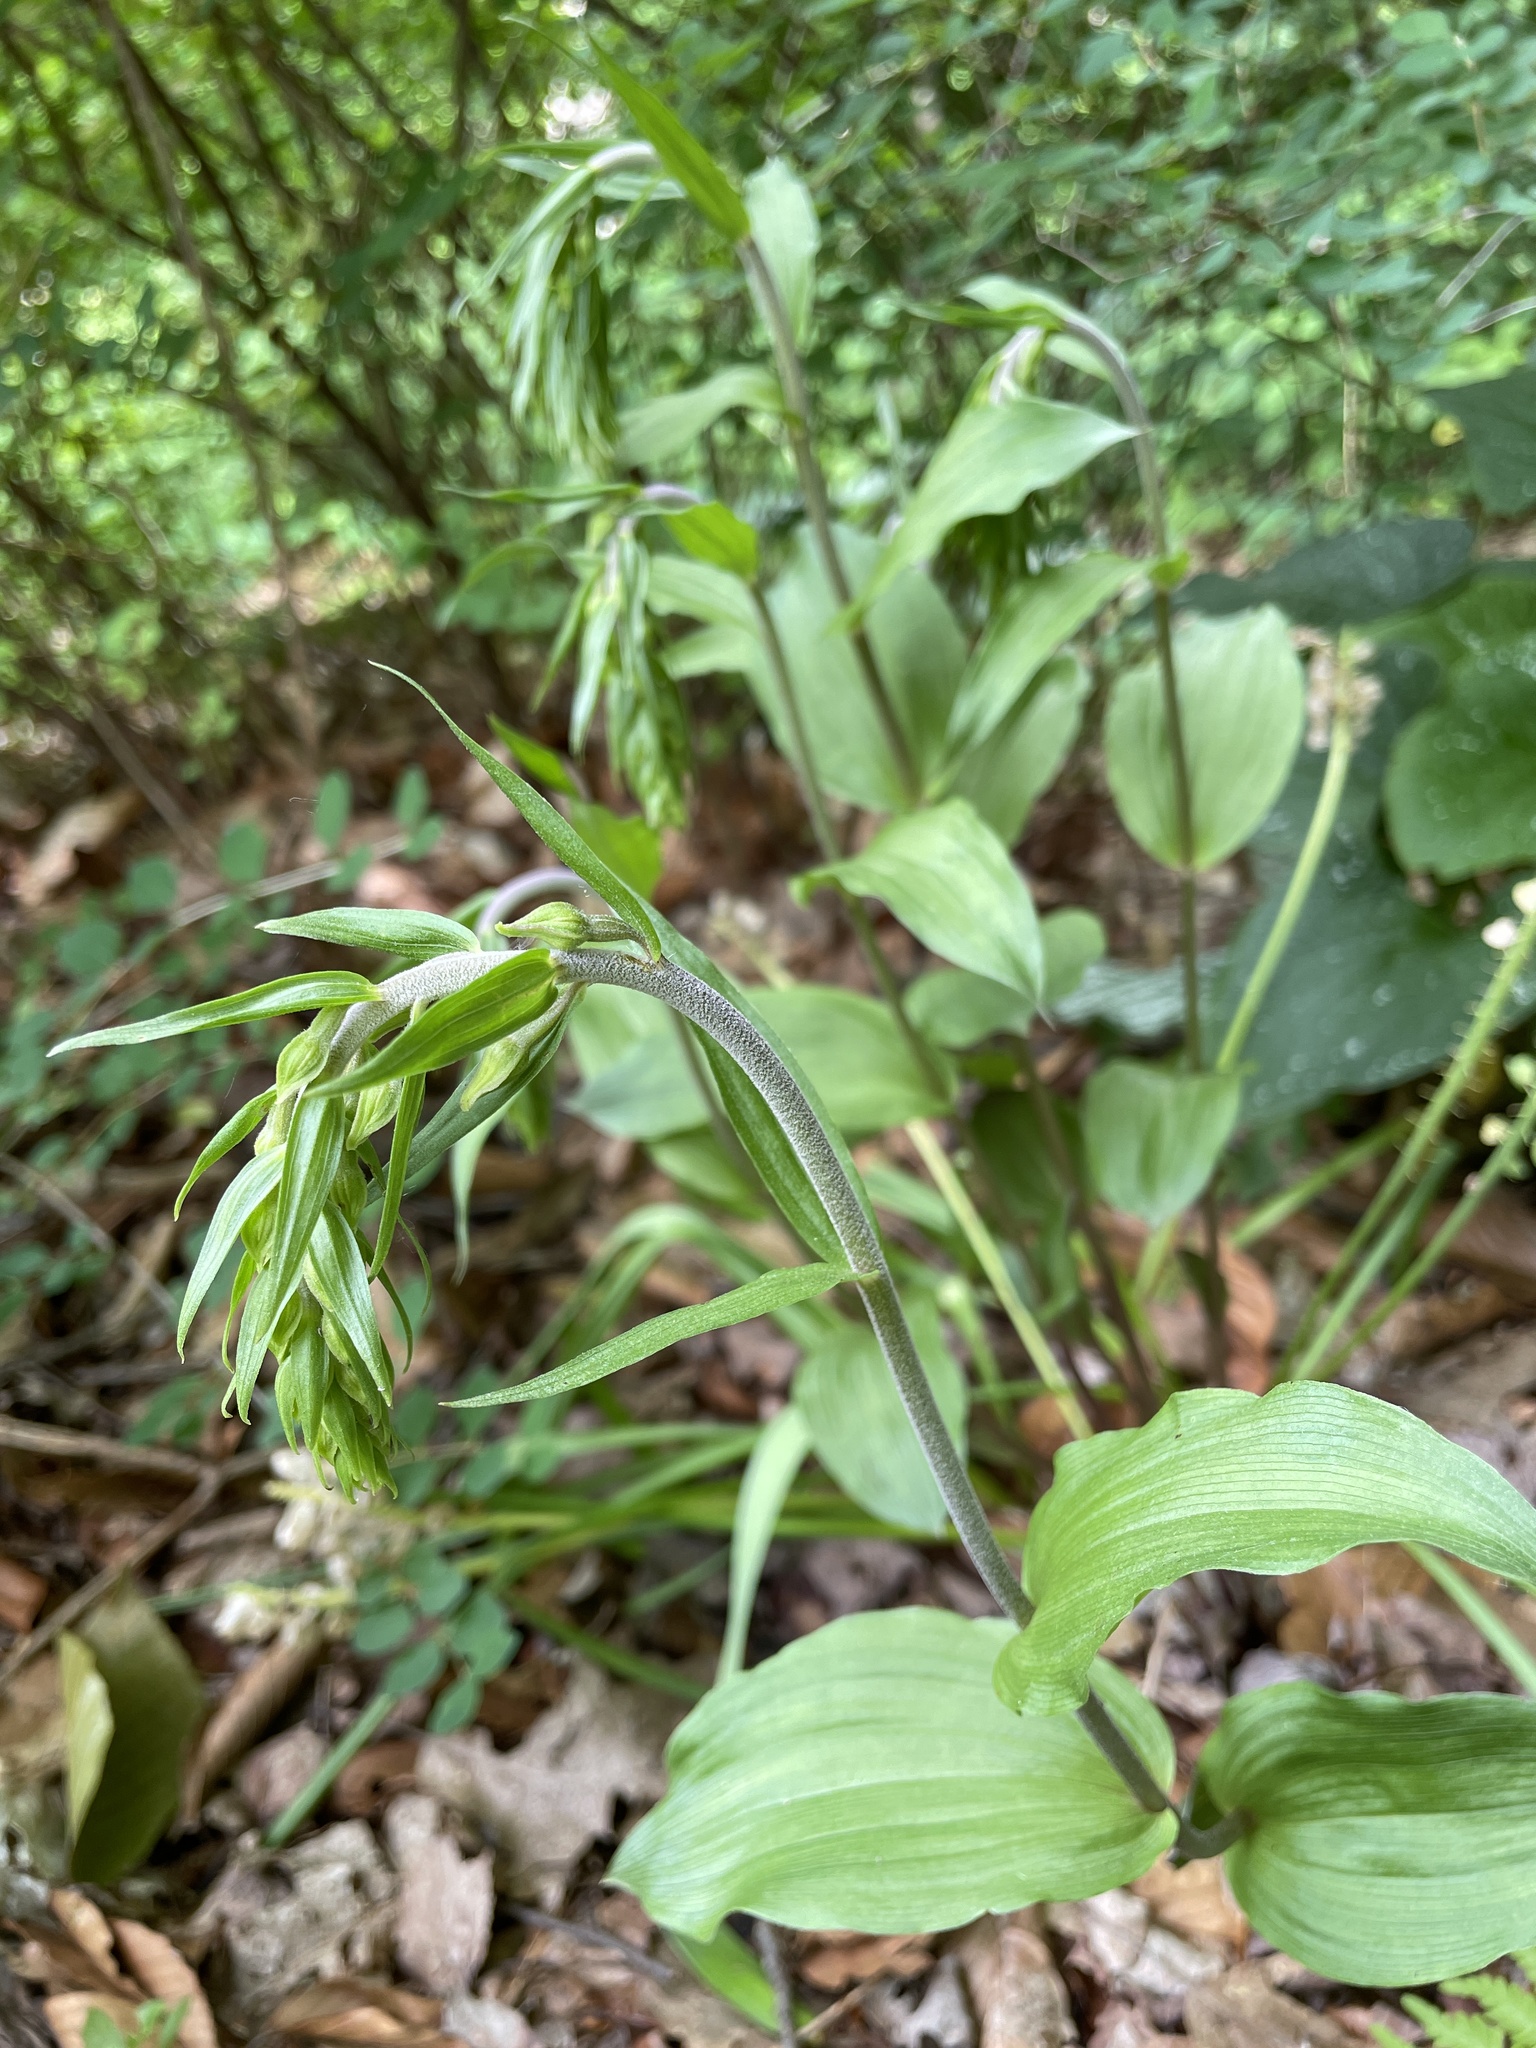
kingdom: Plantae
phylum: Tracheophyta
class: Liliopsida
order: Asparagales
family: Orchidaceae
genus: Epipactis
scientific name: Epipactis helleborine
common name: Broad-leaved helleborine
